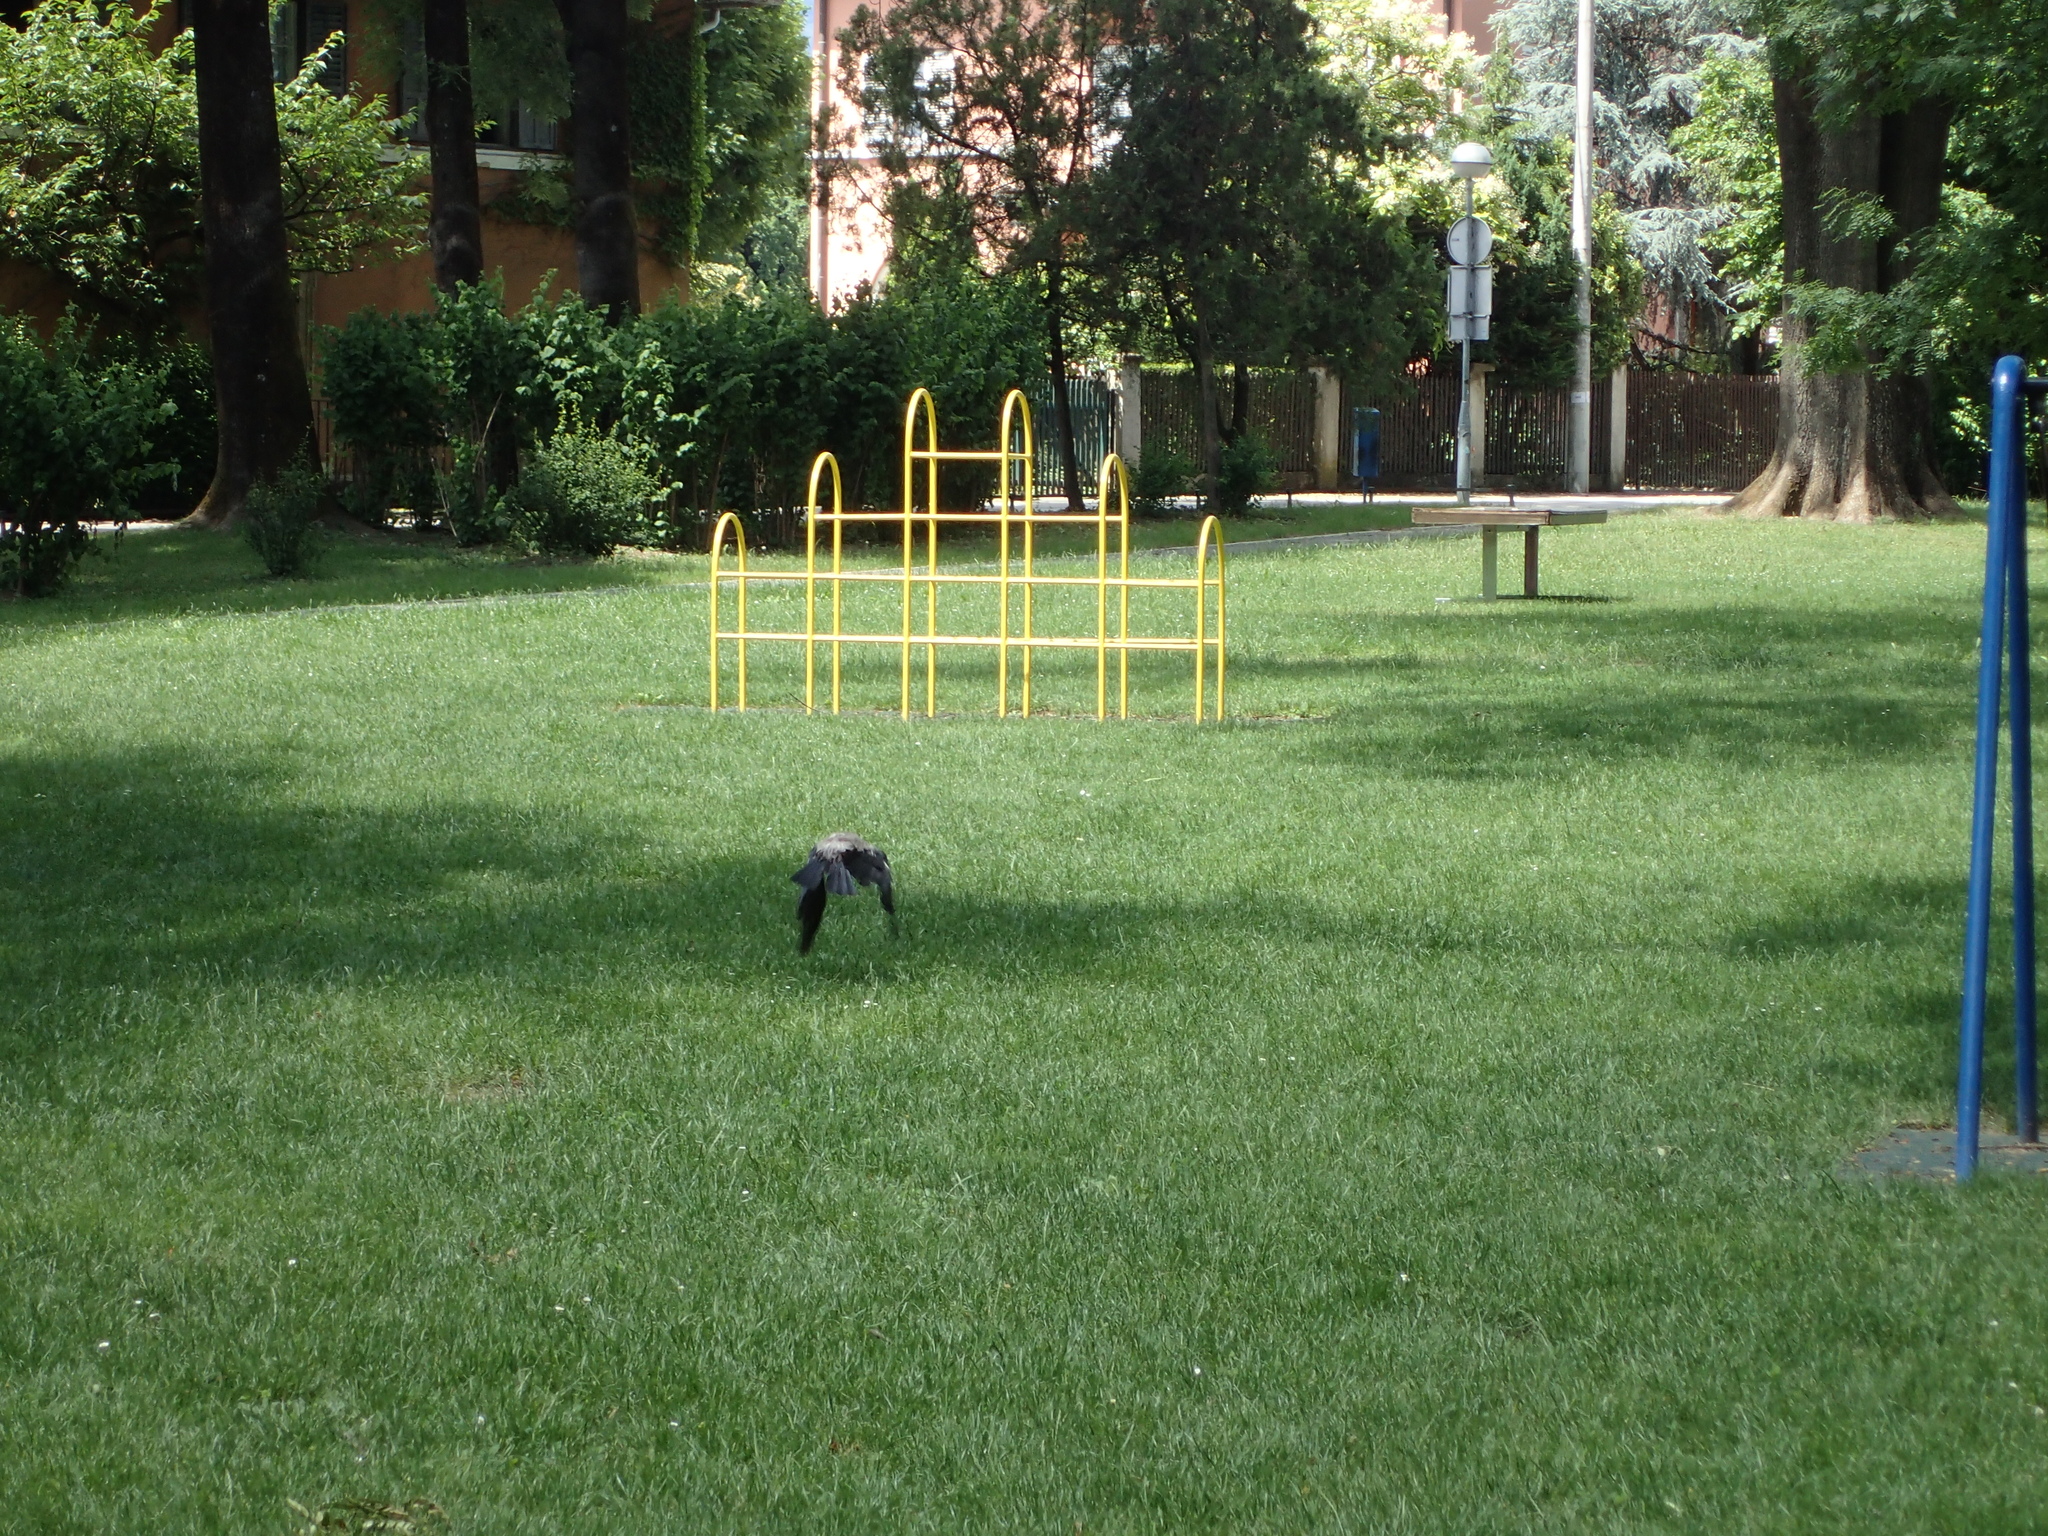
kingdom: Animalia
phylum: Chordata
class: Aves
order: Passeriformes
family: Corvidae
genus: Corvus
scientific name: Corvus cornix
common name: Hooded crow
